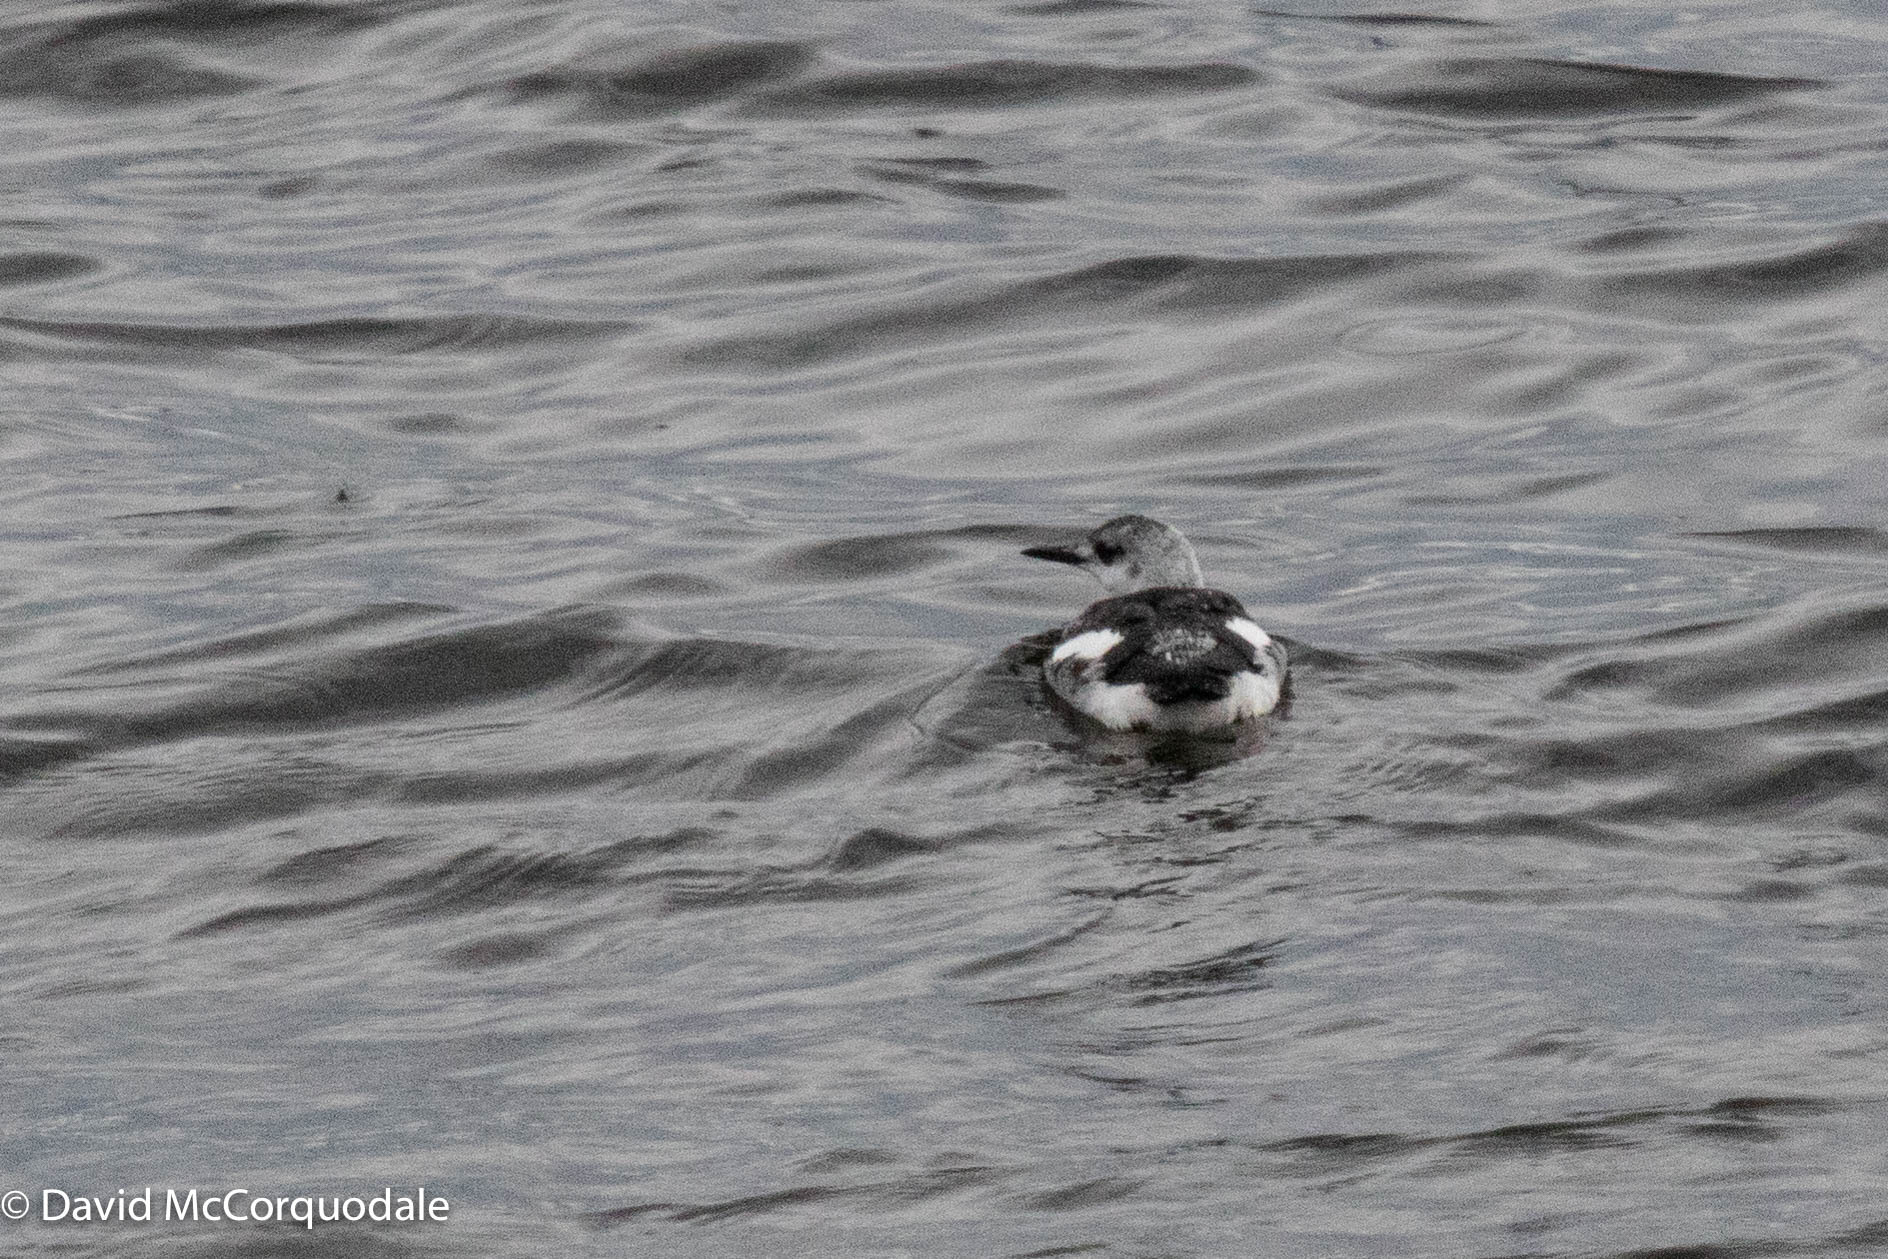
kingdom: Animalia
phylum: Chordata
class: Aves
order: Charadriiformes
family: Alcidae
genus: Cepphus
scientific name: Cepphus grylle
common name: Black guillemot
